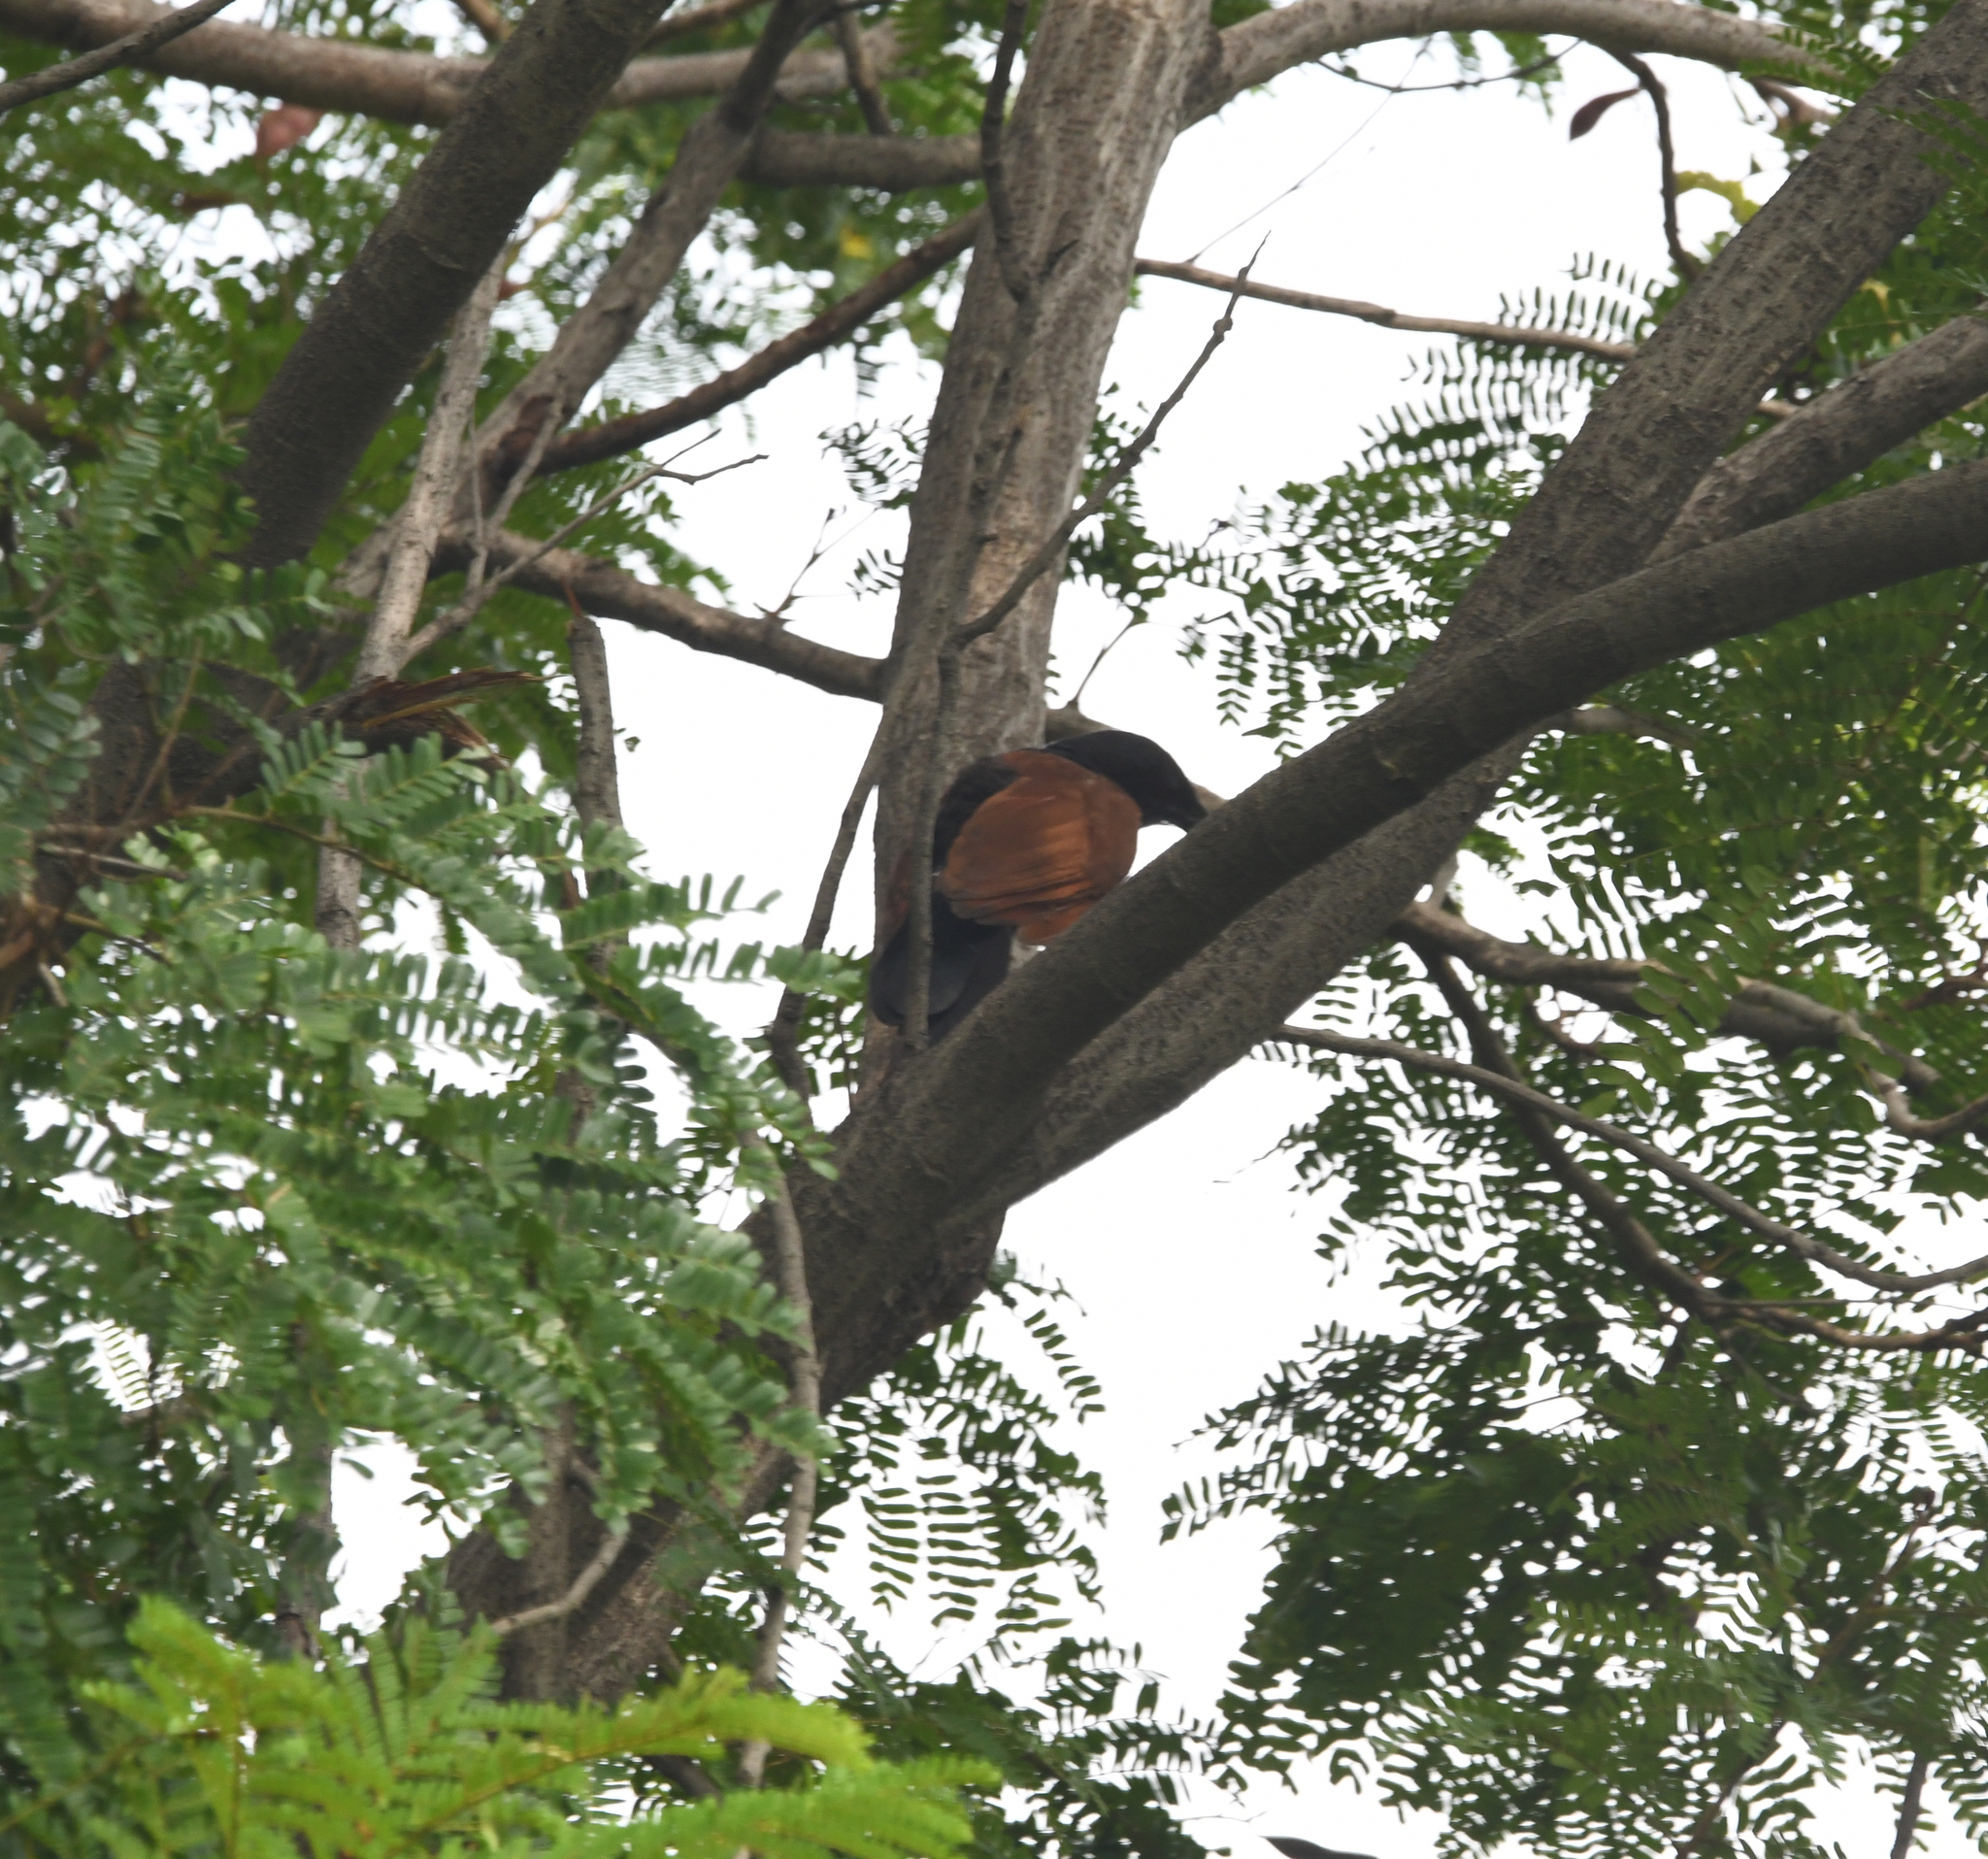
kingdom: Animalia
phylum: Chordata
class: Aves
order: Cuculiformes
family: Cuculidae
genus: Centropus
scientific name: Centropus sinensis
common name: Greater coucal
